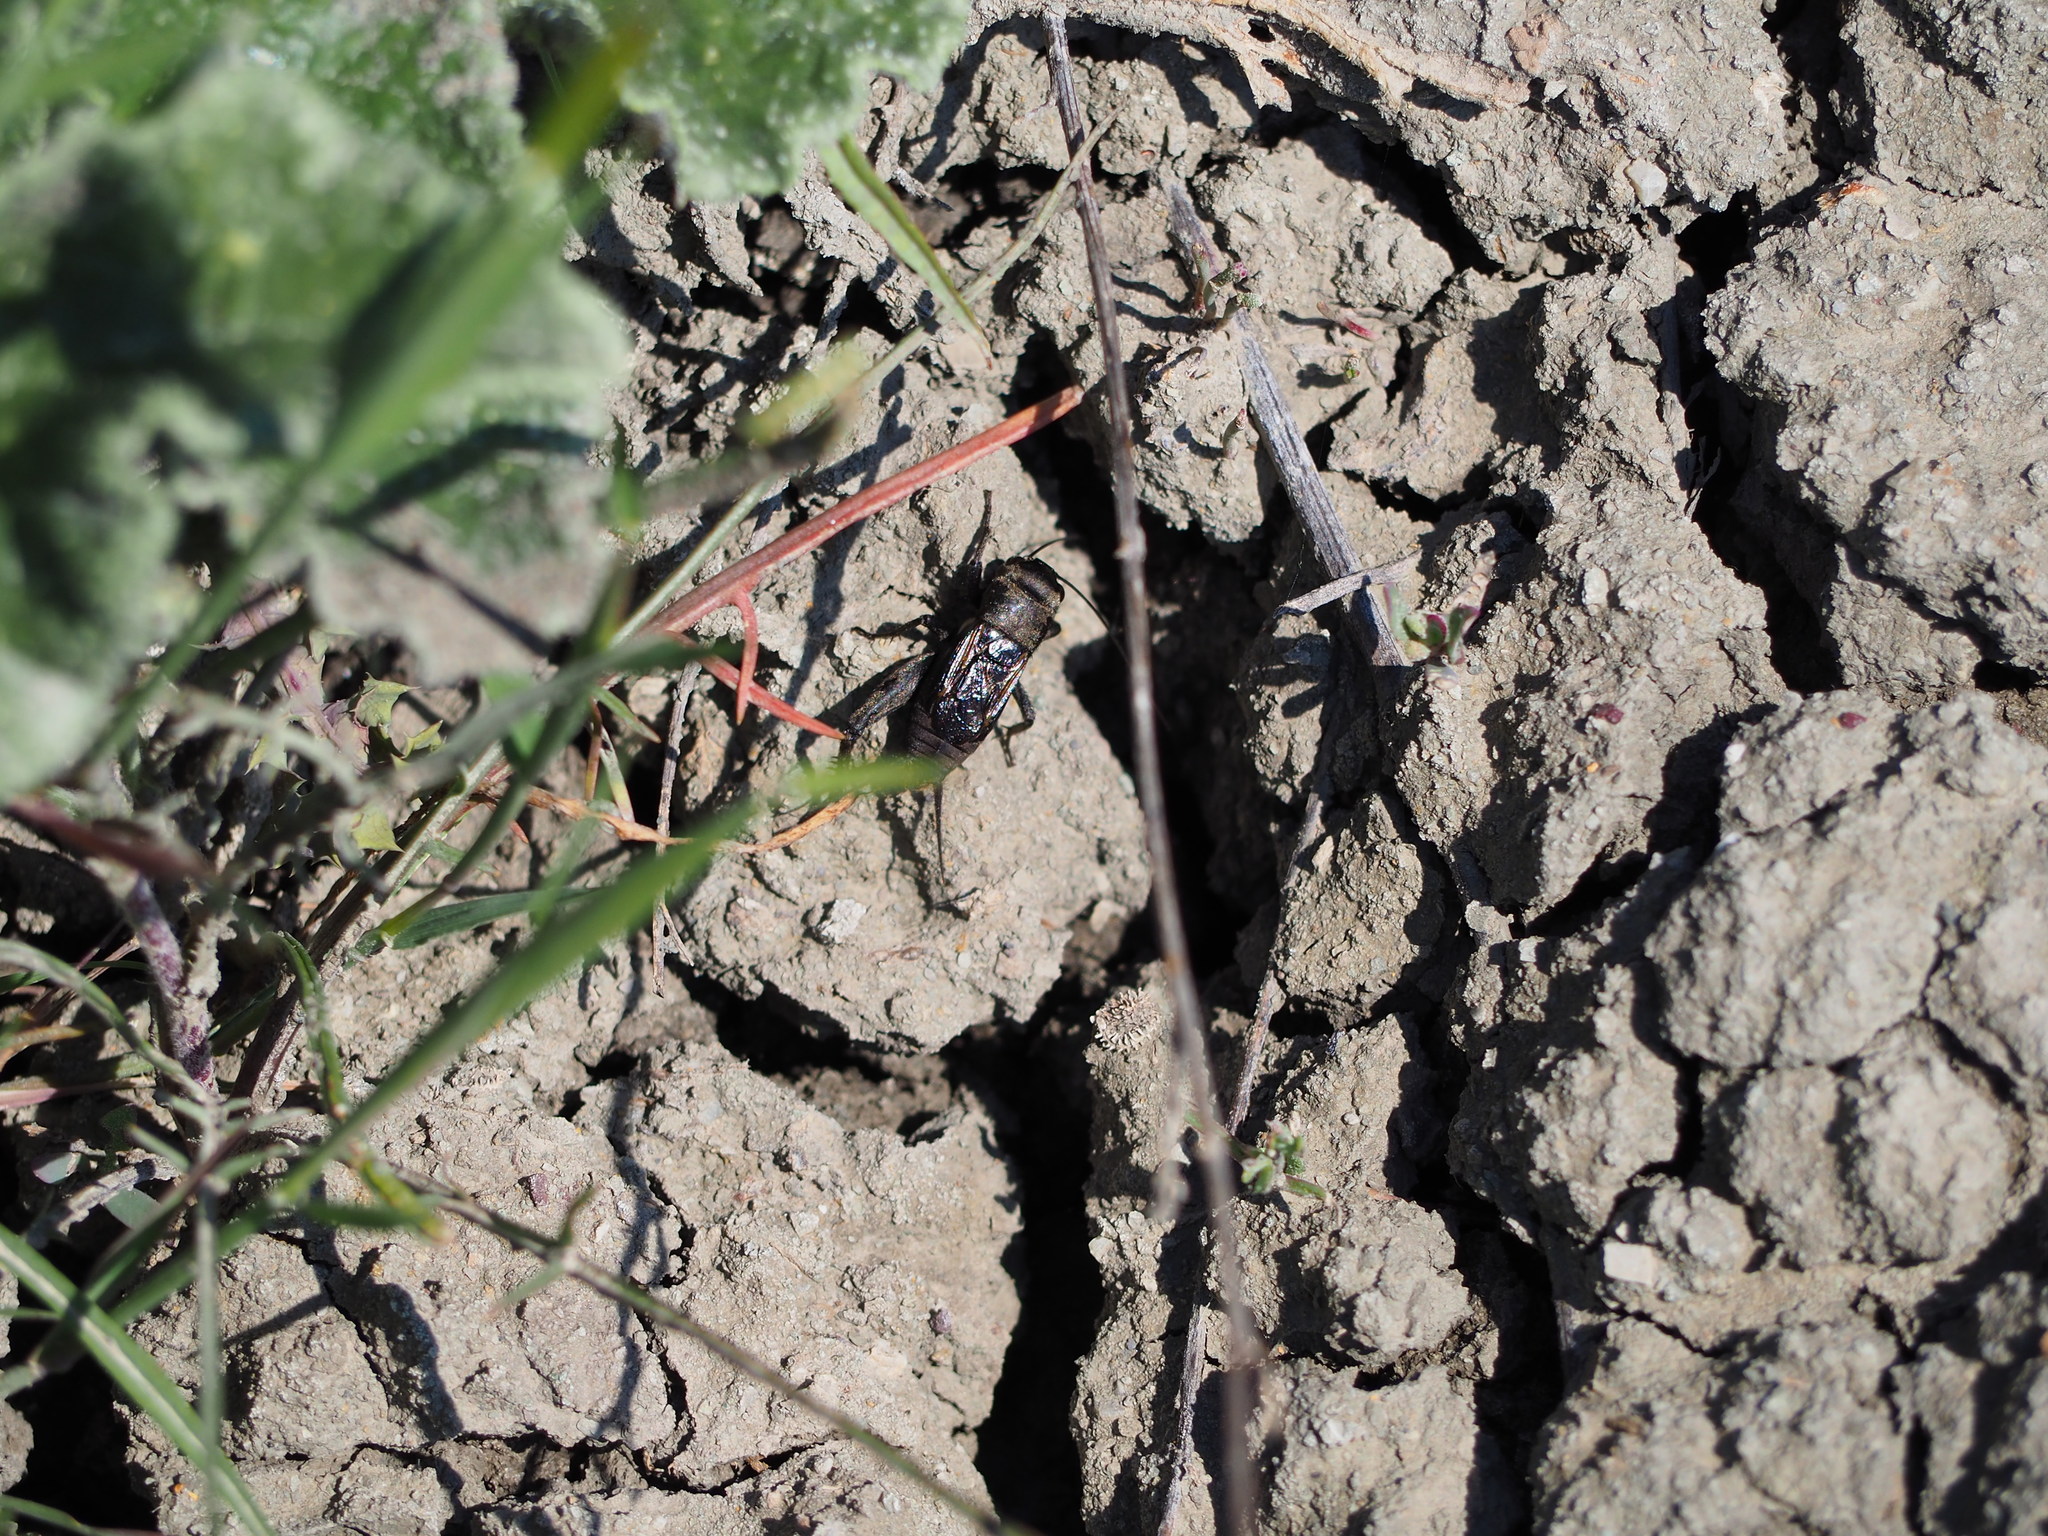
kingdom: Animalia
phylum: Arthropoda
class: Insecta
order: Orthoptera
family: Gryllidae
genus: Melanogryllus
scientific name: Melanogryllus desertus
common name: Desert cricket
